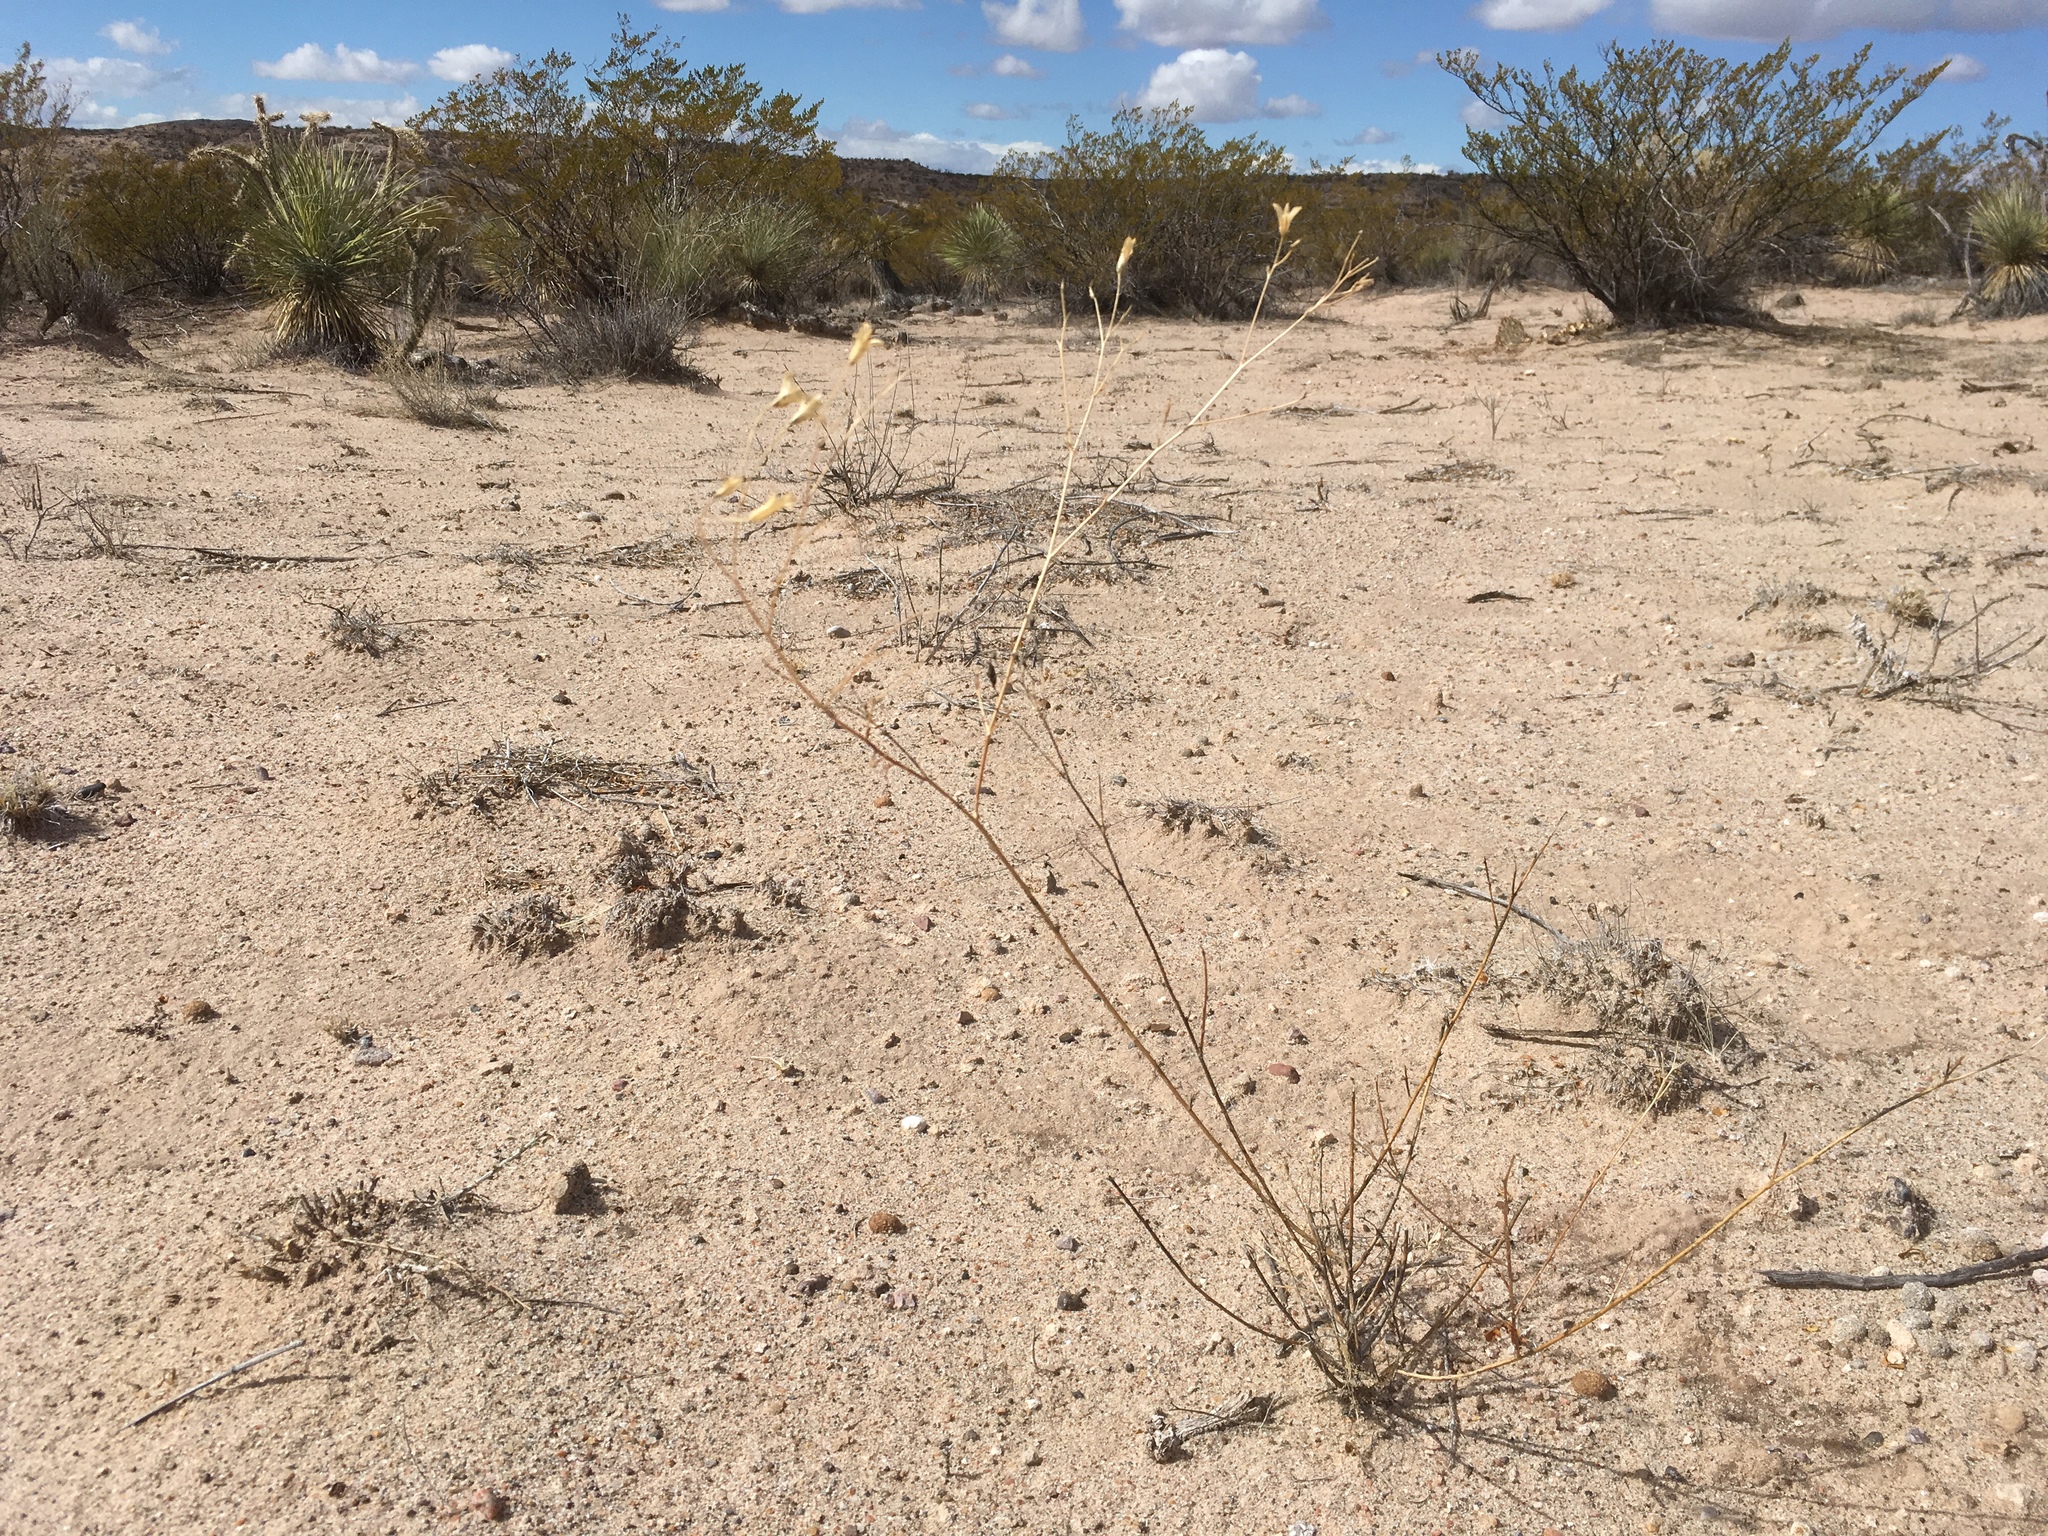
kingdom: Plantae
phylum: Tracheophyta
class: Magnoliopsida
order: Ericales
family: Polemoniaceae
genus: Ipomopsis
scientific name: Ipomopsis longiflora
